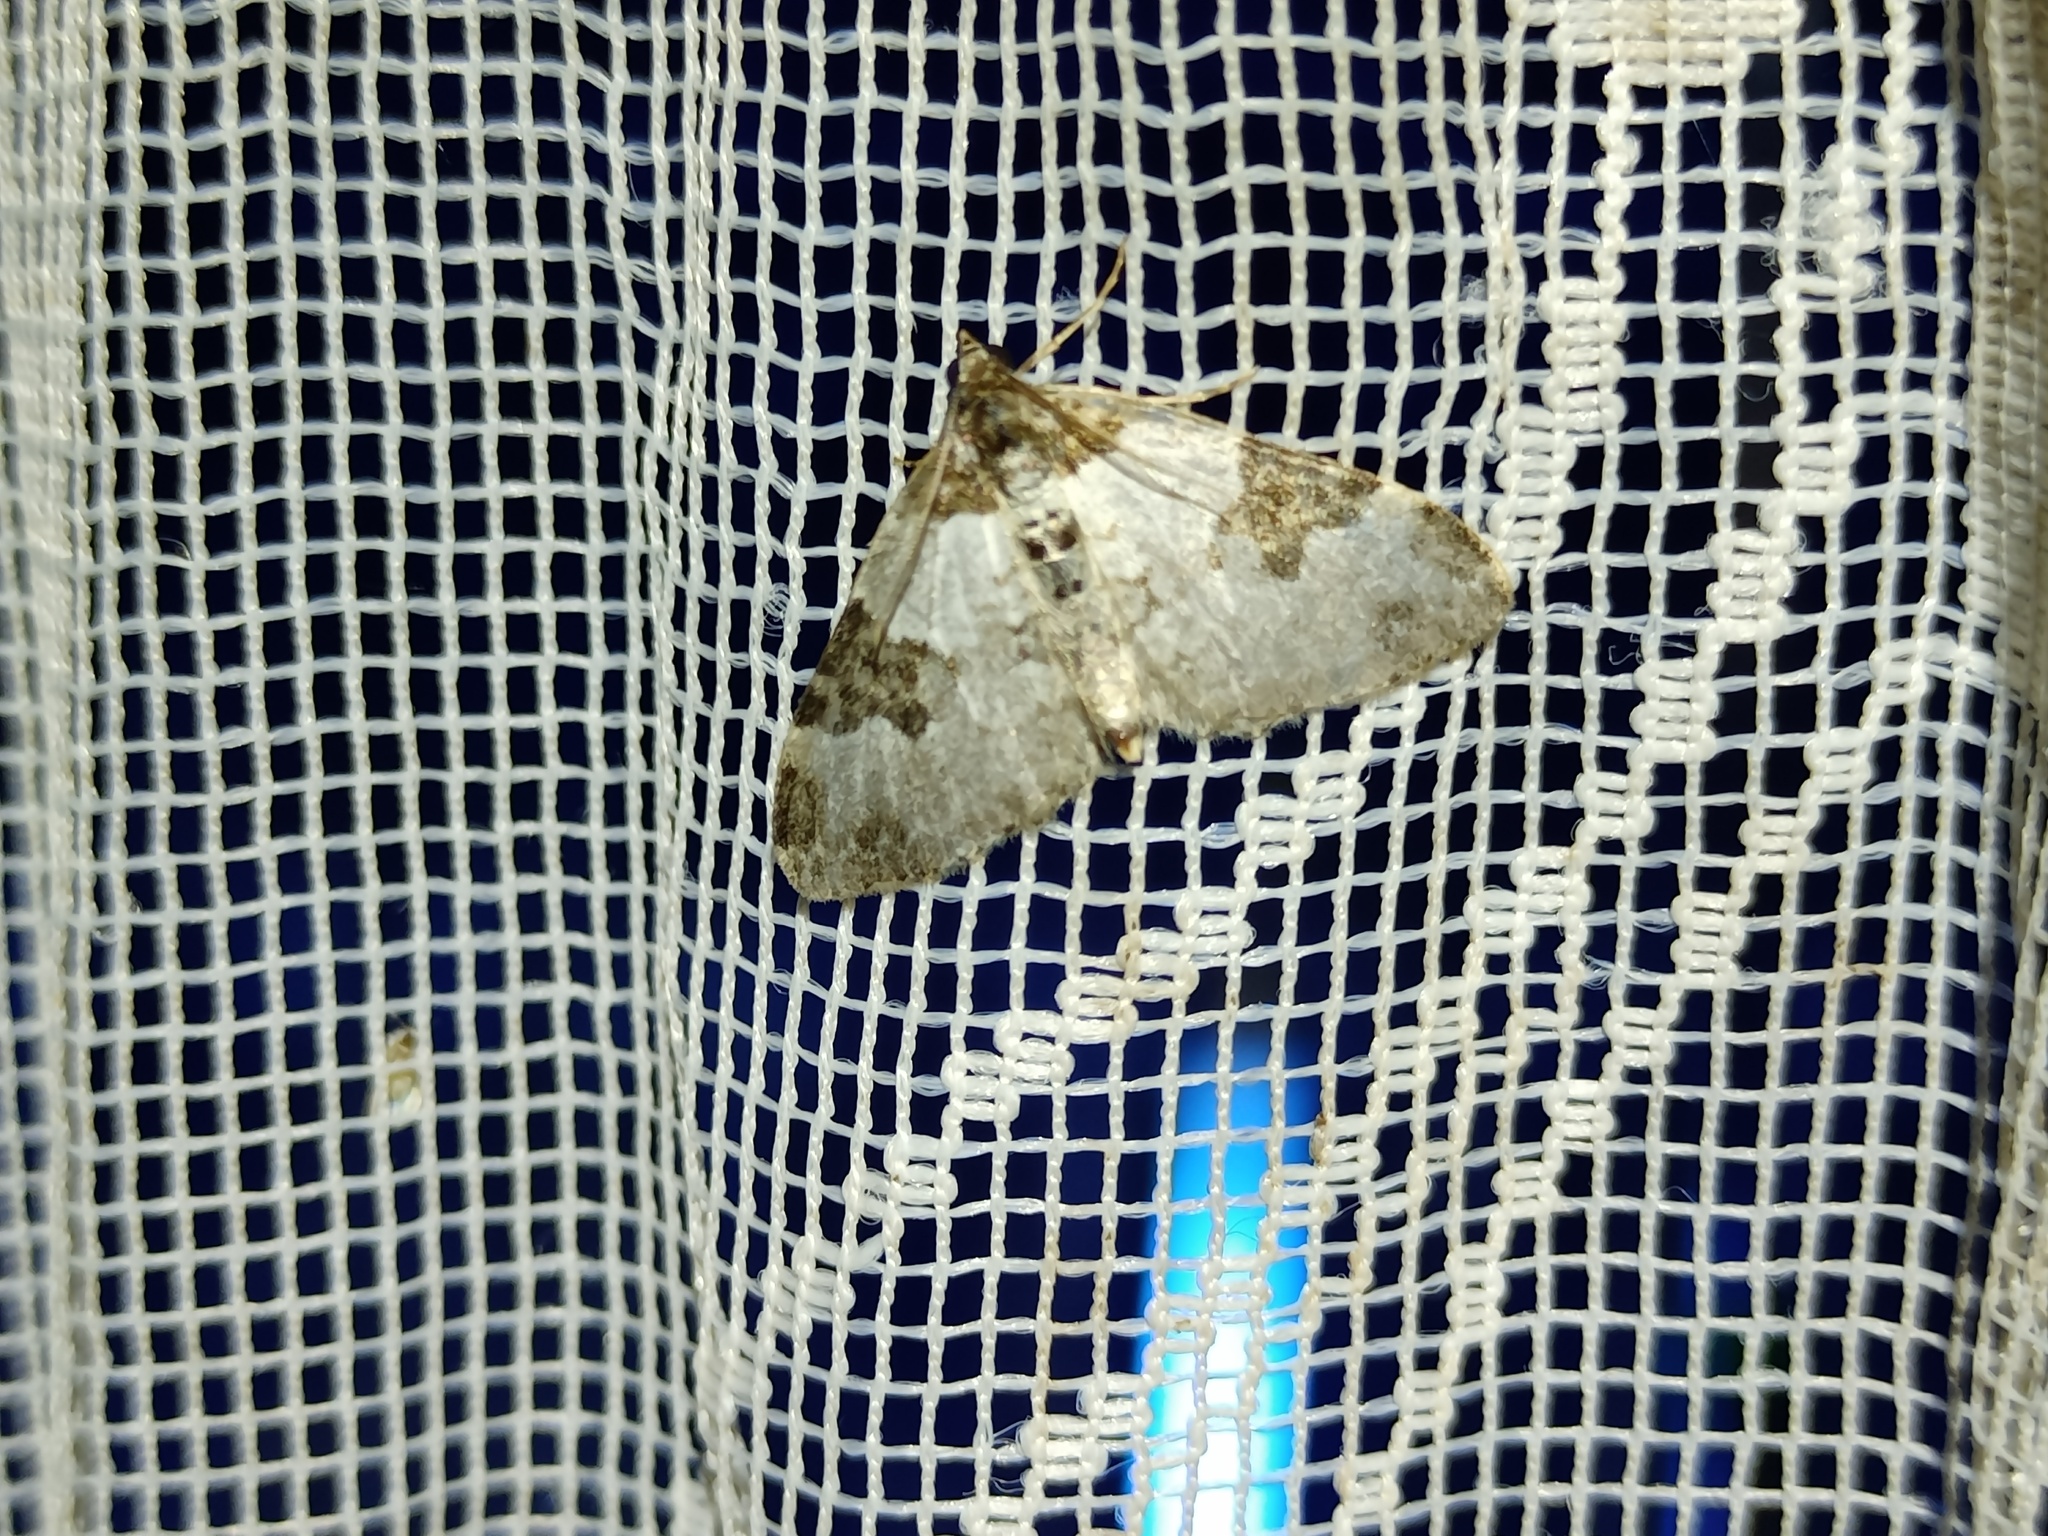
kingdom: Animalia
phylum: Arthropoda
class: Insecta
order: Lepidoptera
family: Geometridae
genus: Xanthorhoe
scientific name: Xanthorhoe fluctuata
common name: Garden carpet
